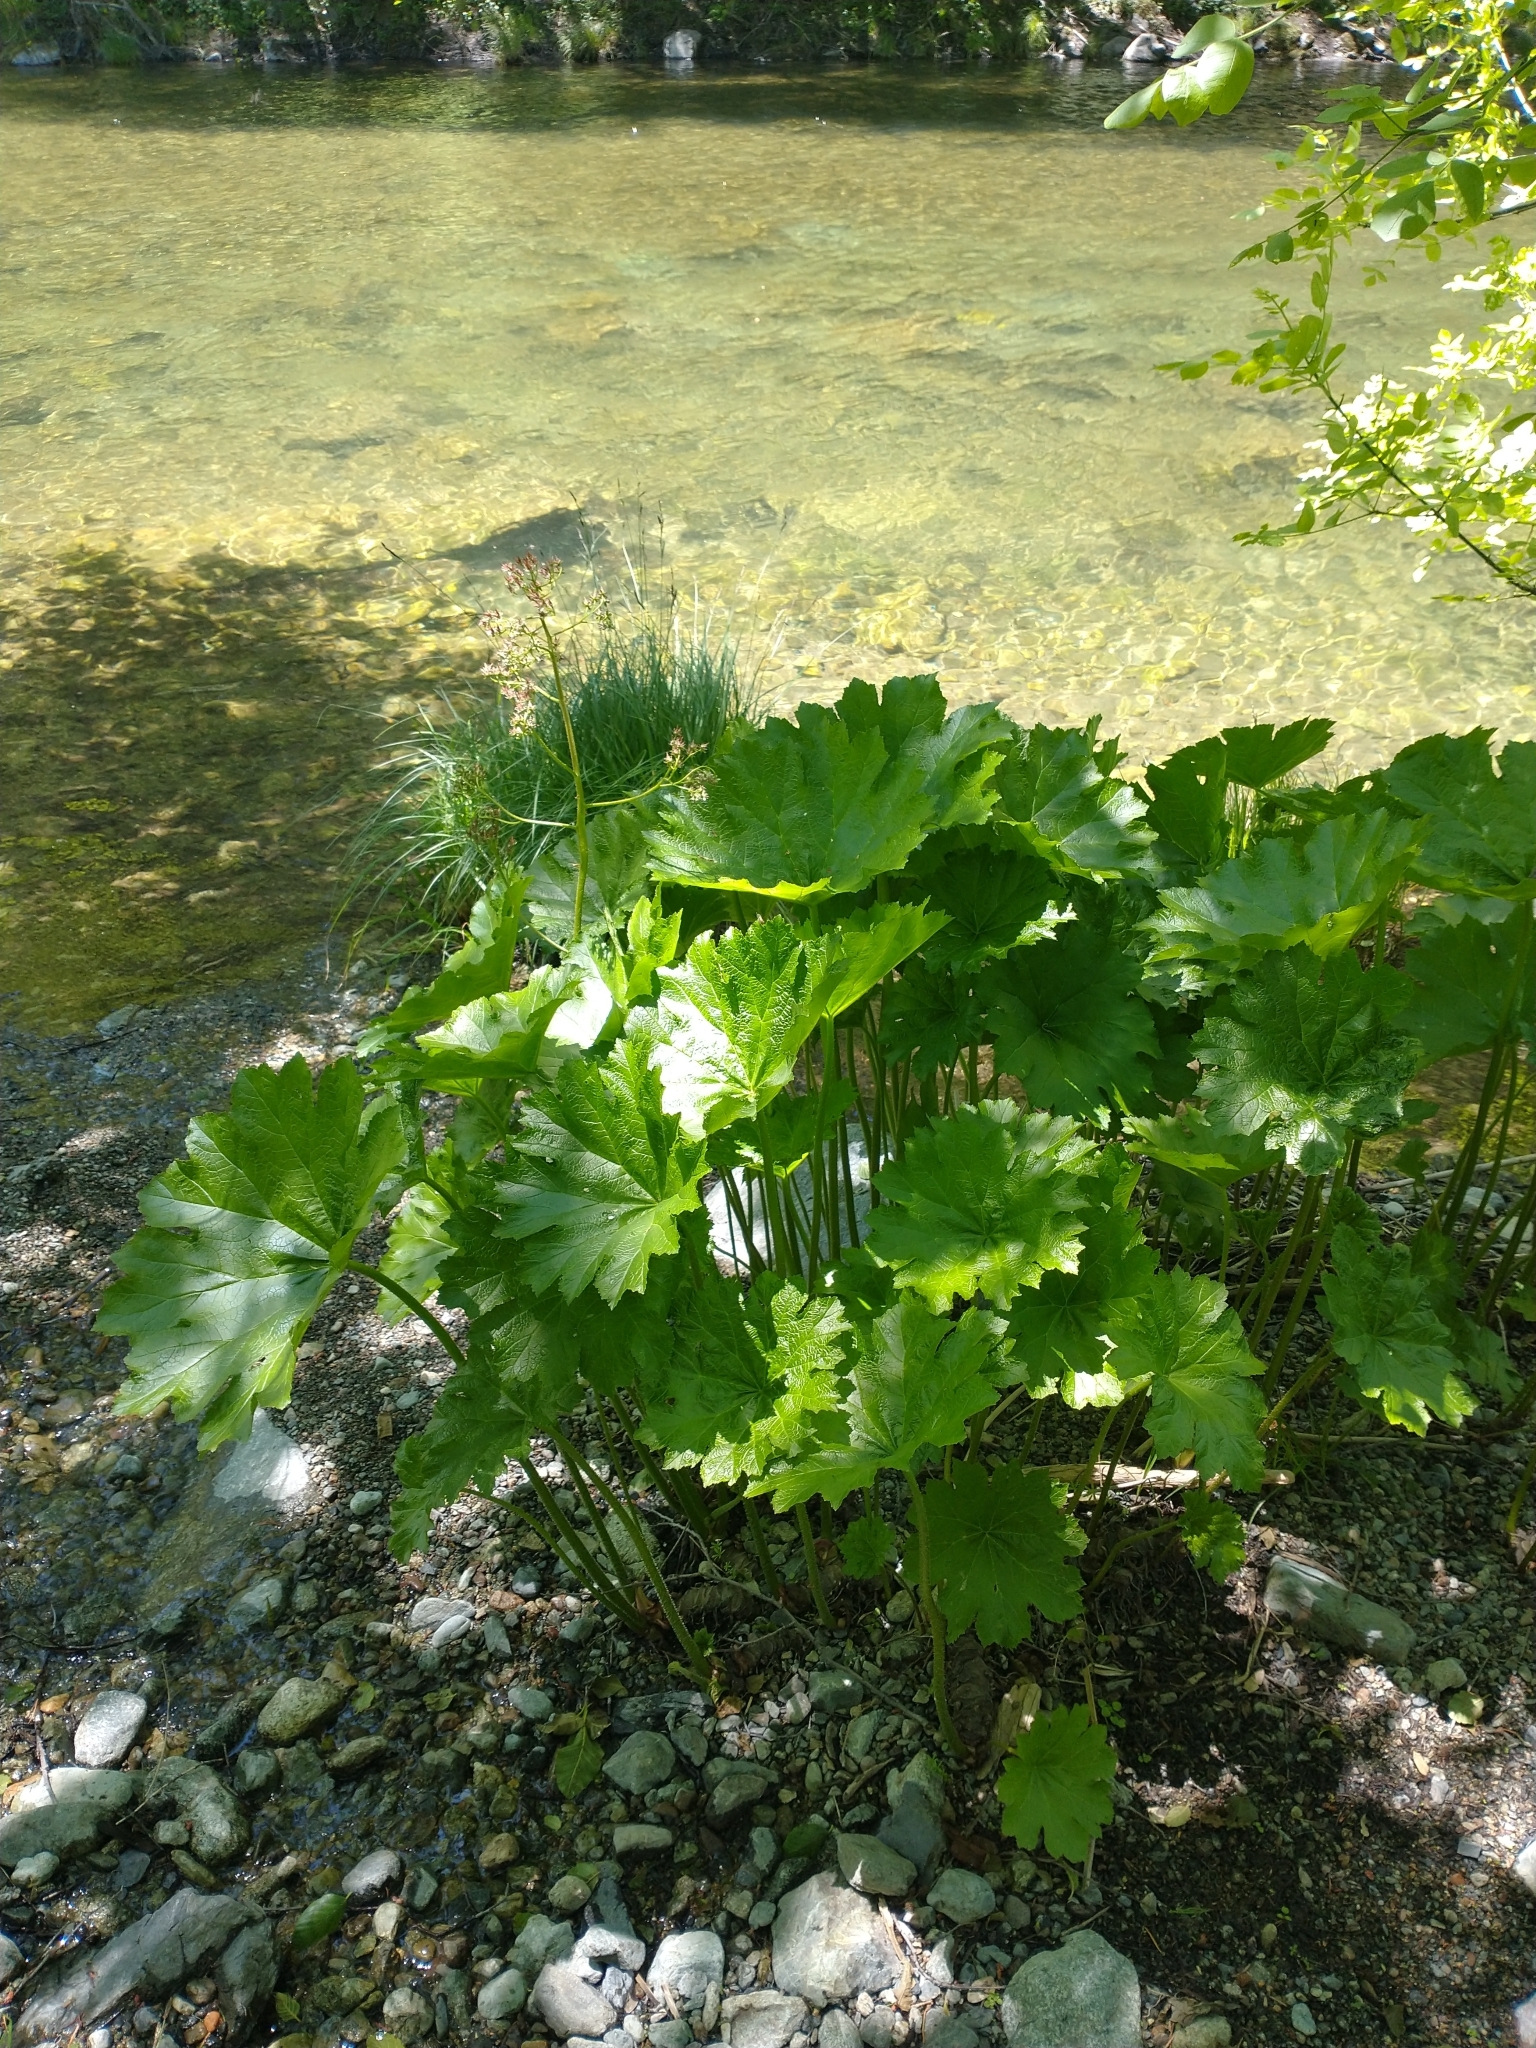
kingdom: Plantae
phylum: Tracheophyta
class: Magnoliopsida
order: Saxifragales
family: Saxifragaceae
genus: Darmera
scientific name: Darmera peltata
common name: Indian-rhubarb
